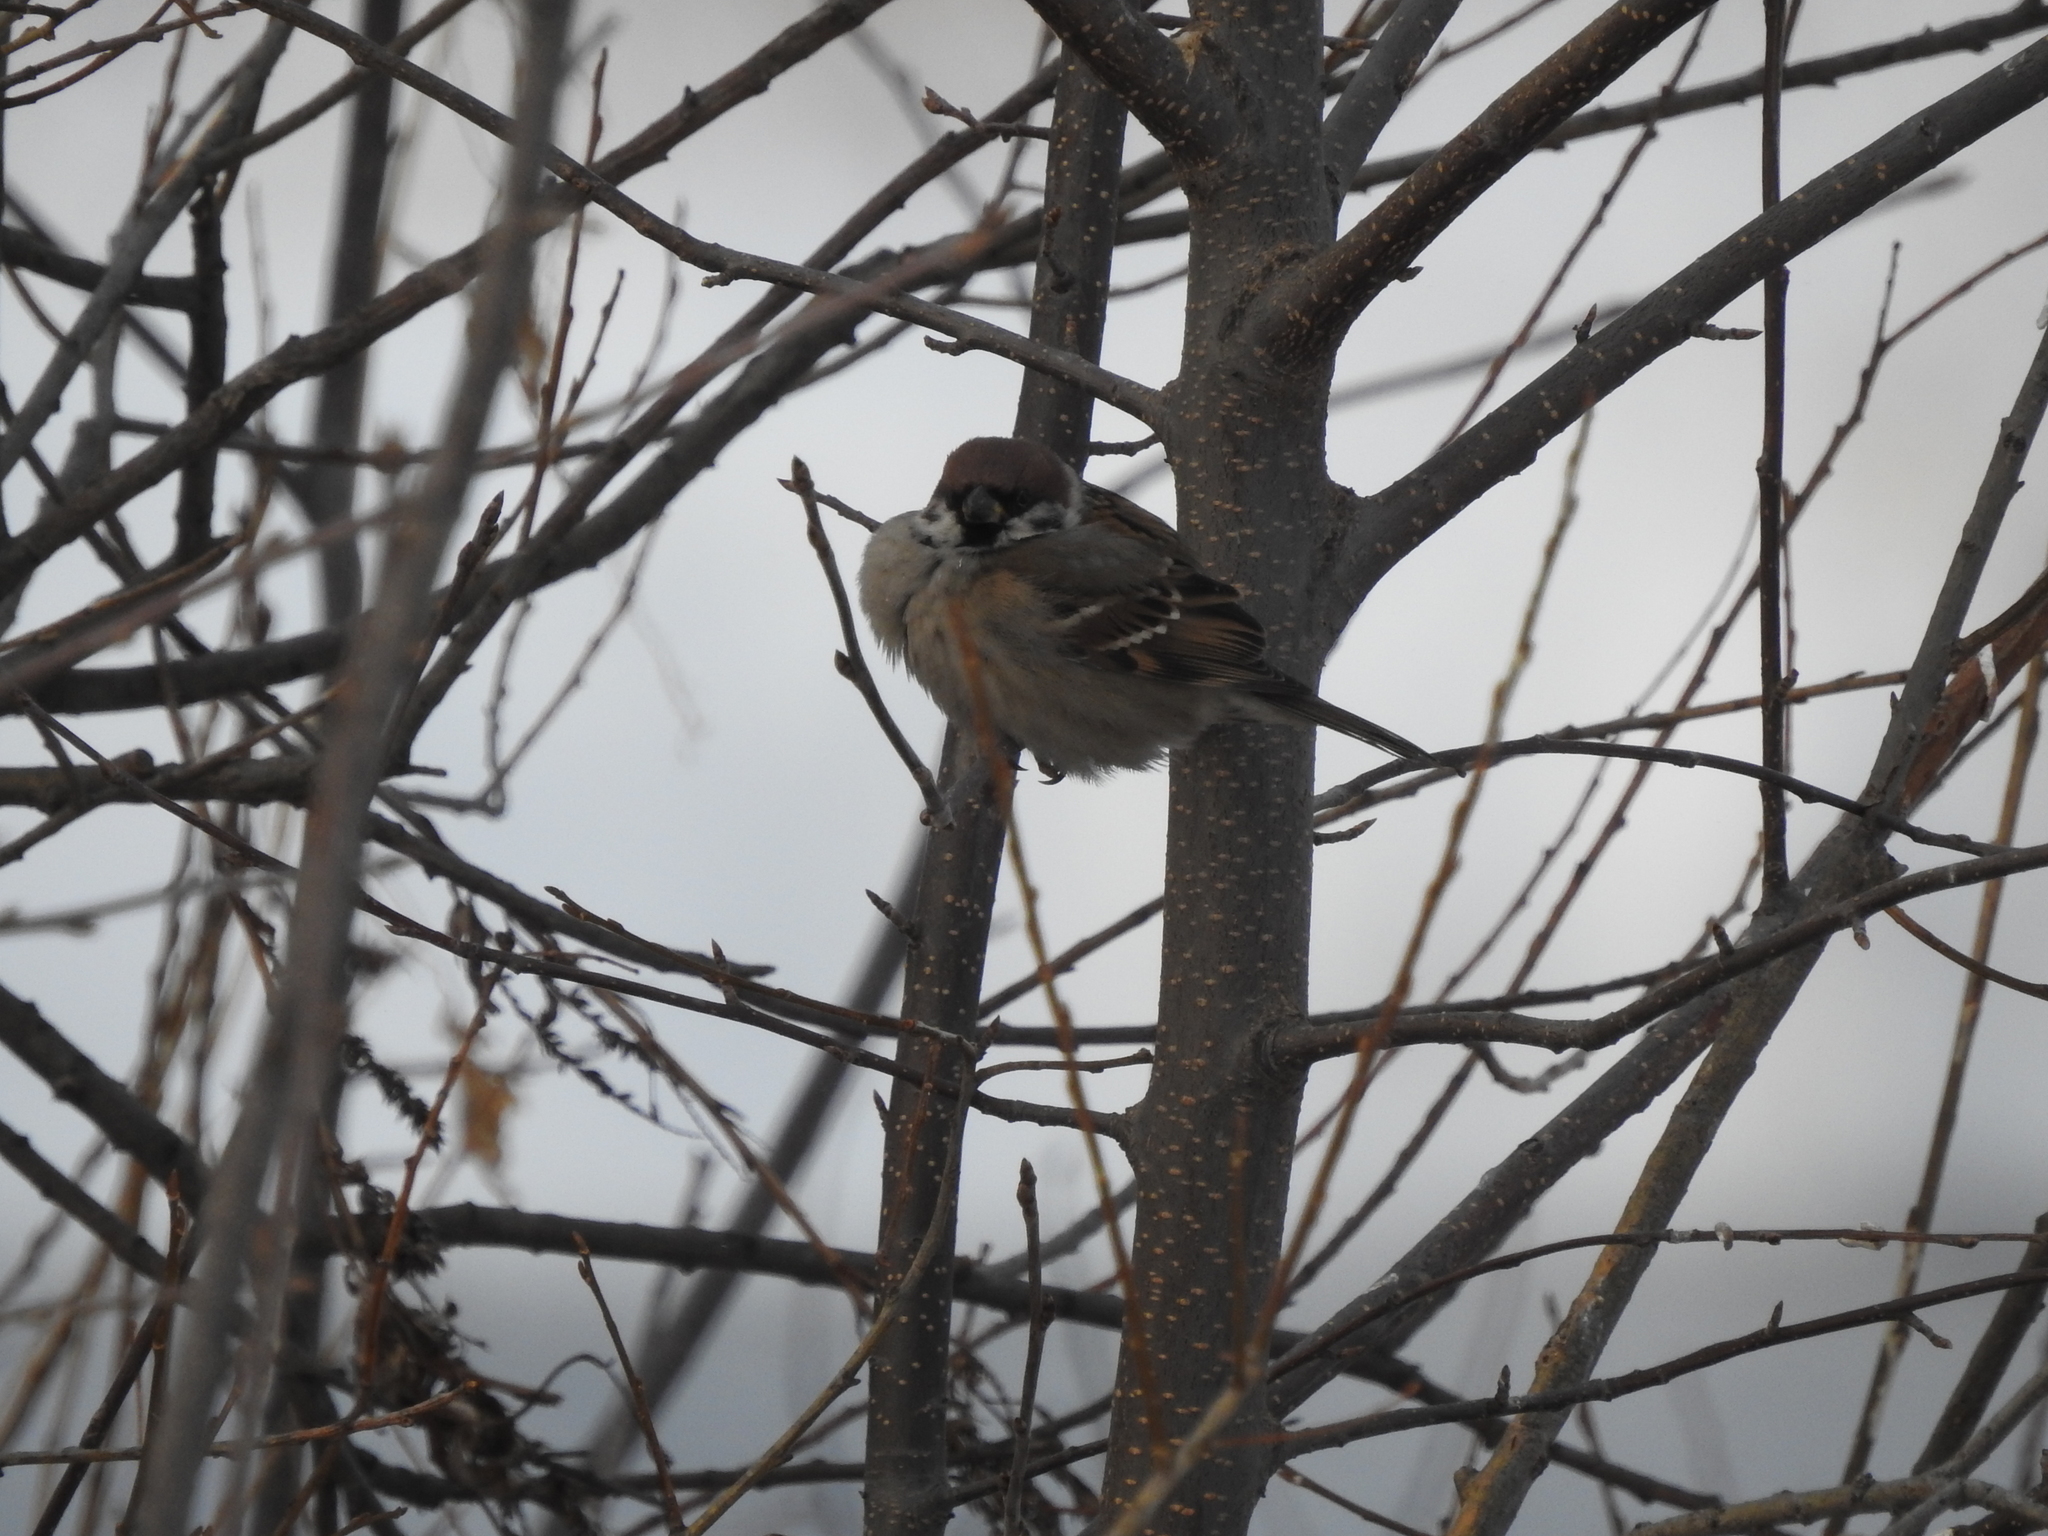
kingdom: Animalia
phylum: Chordata
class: Aves
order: Passeriformes
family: Passeridae
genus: Passer
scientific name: Passer montanus
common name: Eurasian tree sparrow
